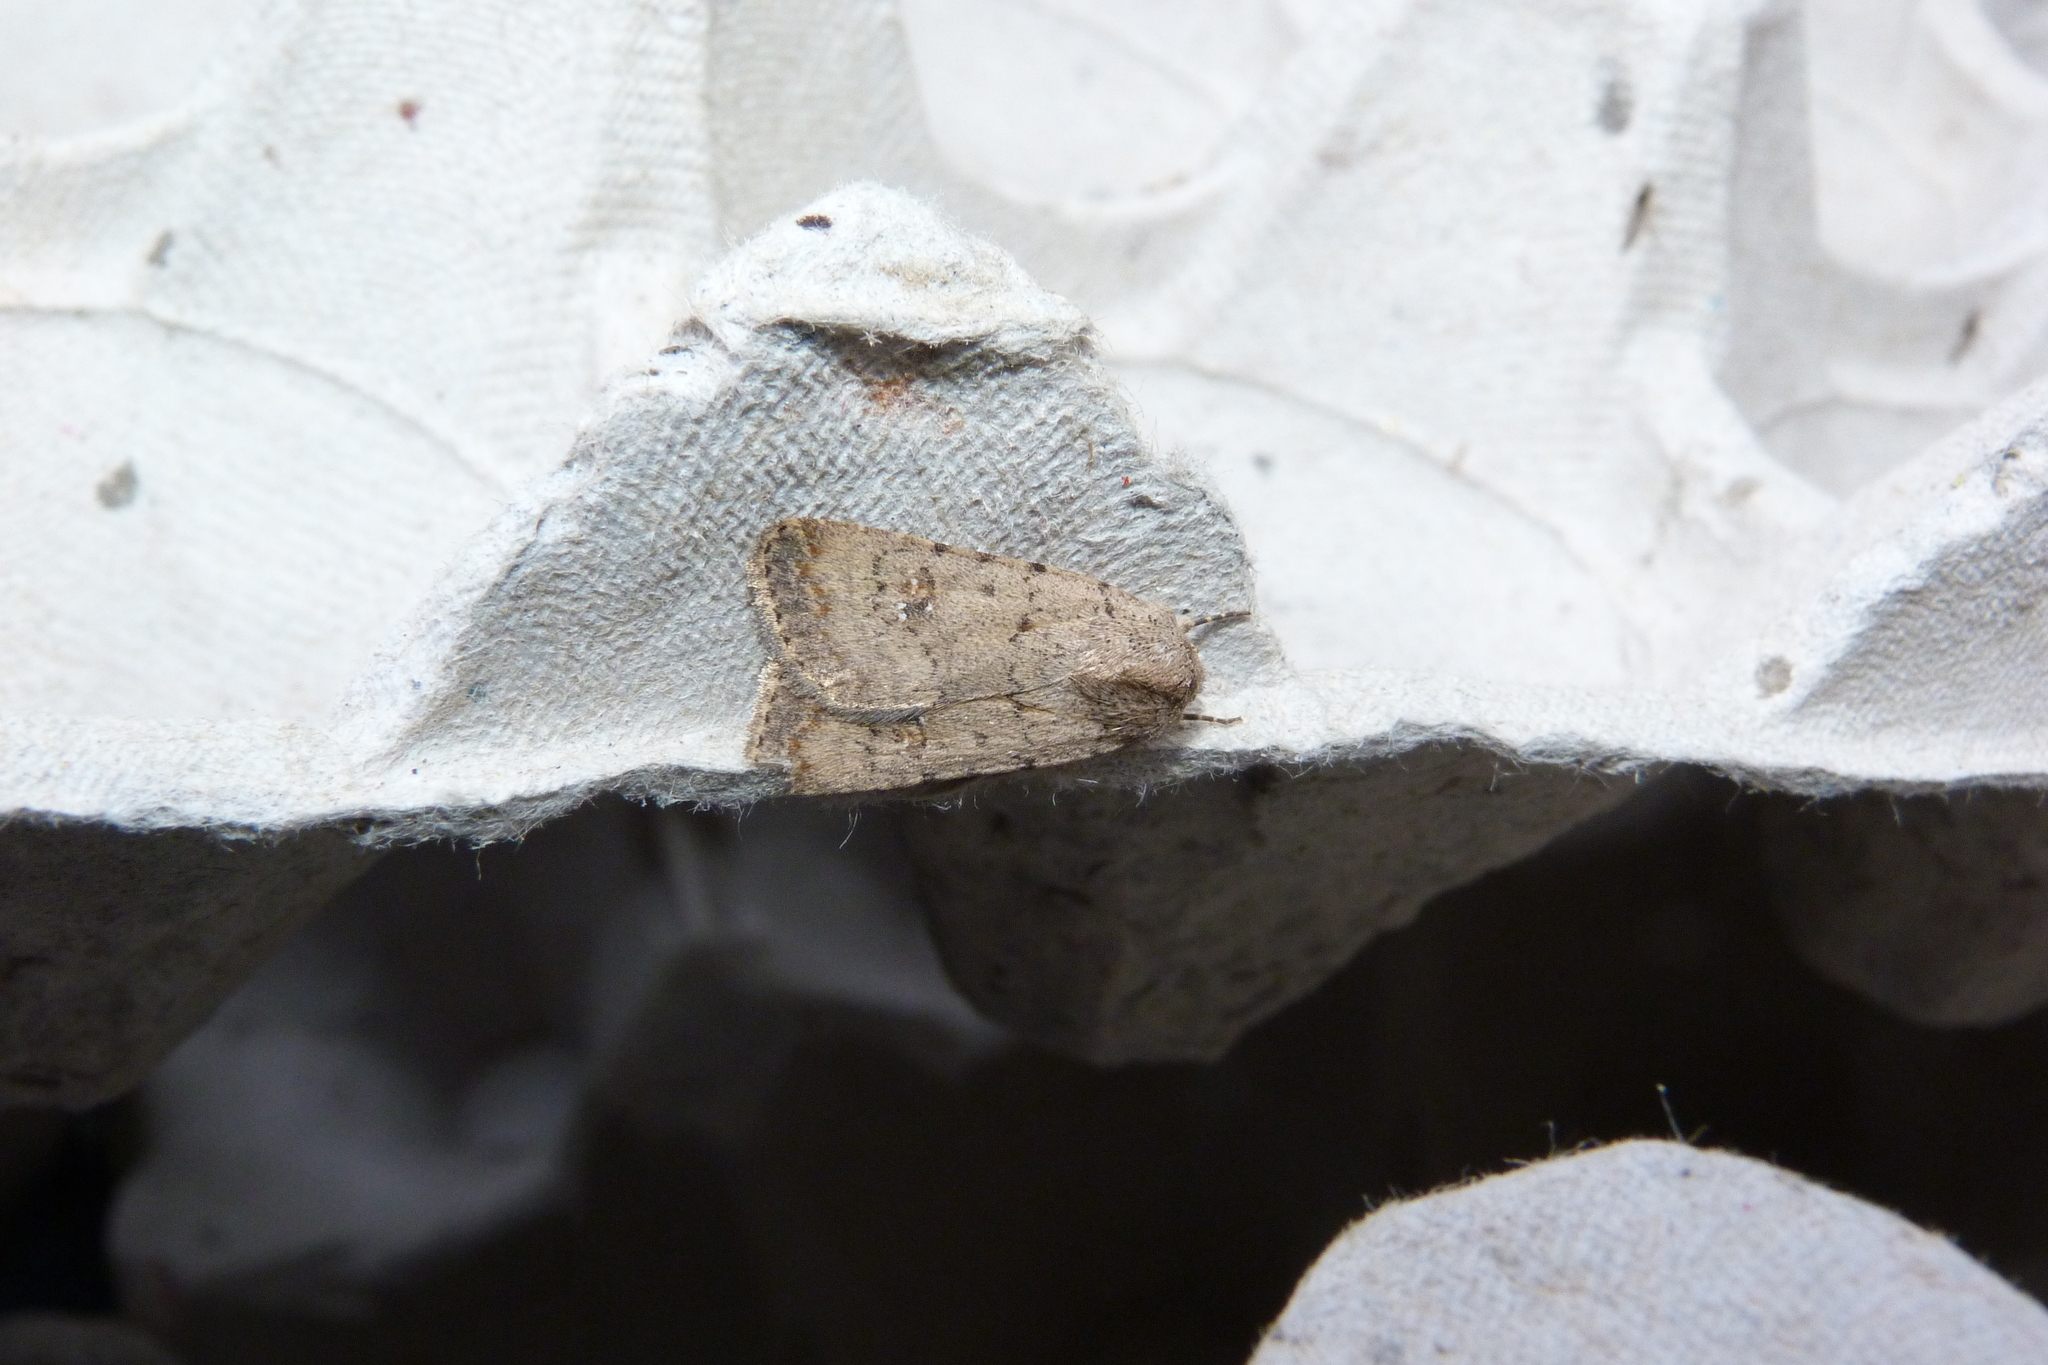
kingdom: Animalia
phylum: Arthropoda
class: Insecta
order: Lepidoptera
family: Noctuidae
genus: Caradrina
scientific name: Caradrina clavipalpis
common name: Pale mottled willow
